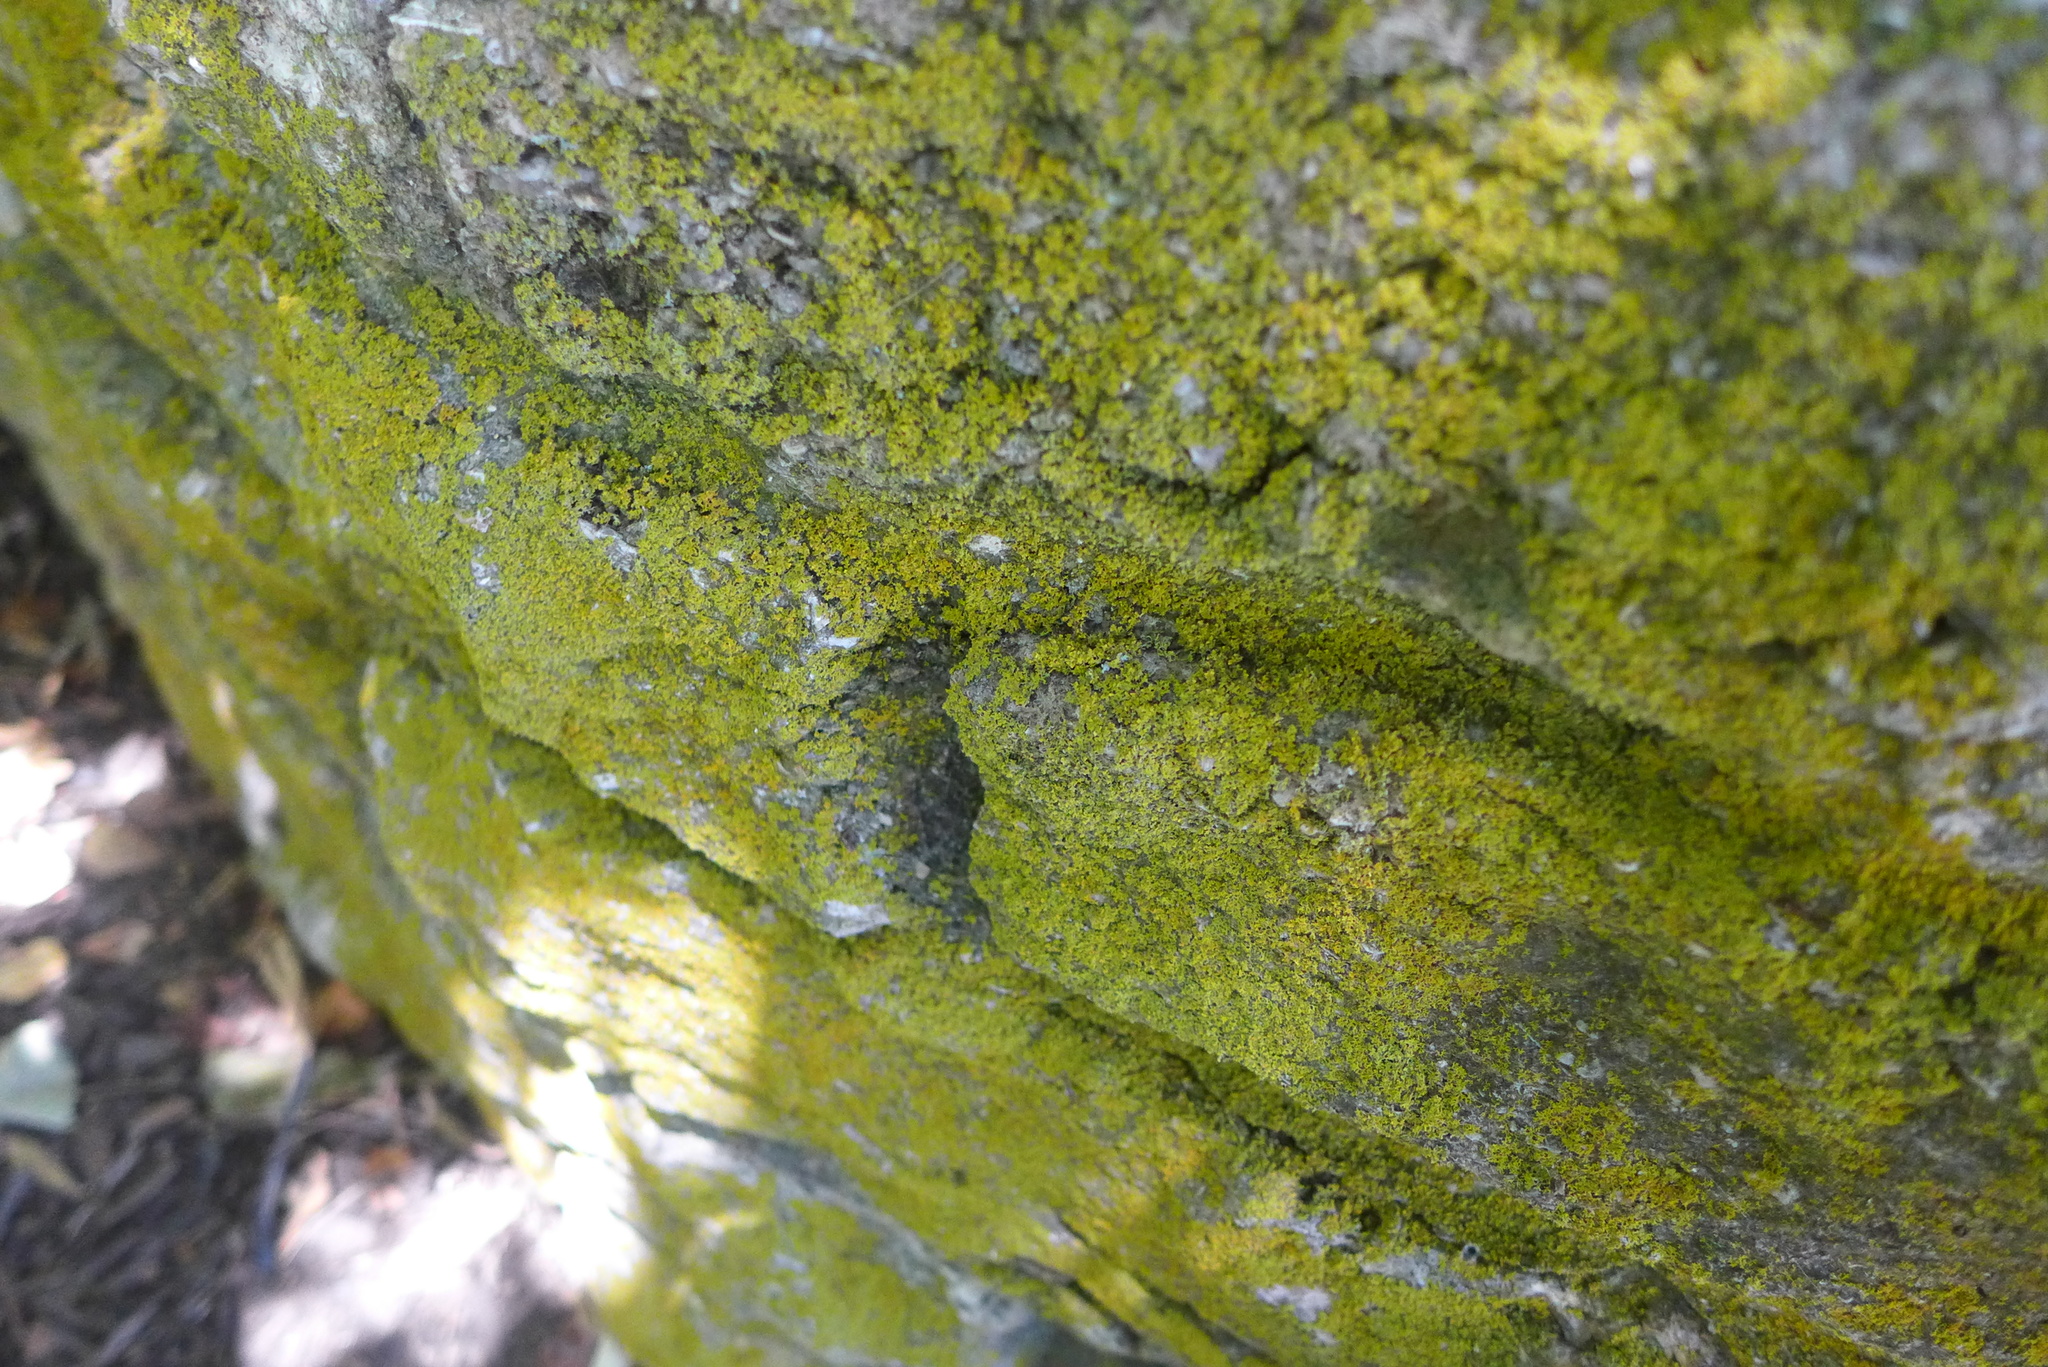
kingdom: Fungi
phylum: Ascomycota
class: Candelariomycetes
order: Candelariales
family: Candelariaceae
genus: Candelaria
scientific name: Candelaria concolor
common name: Candleflame lichen
